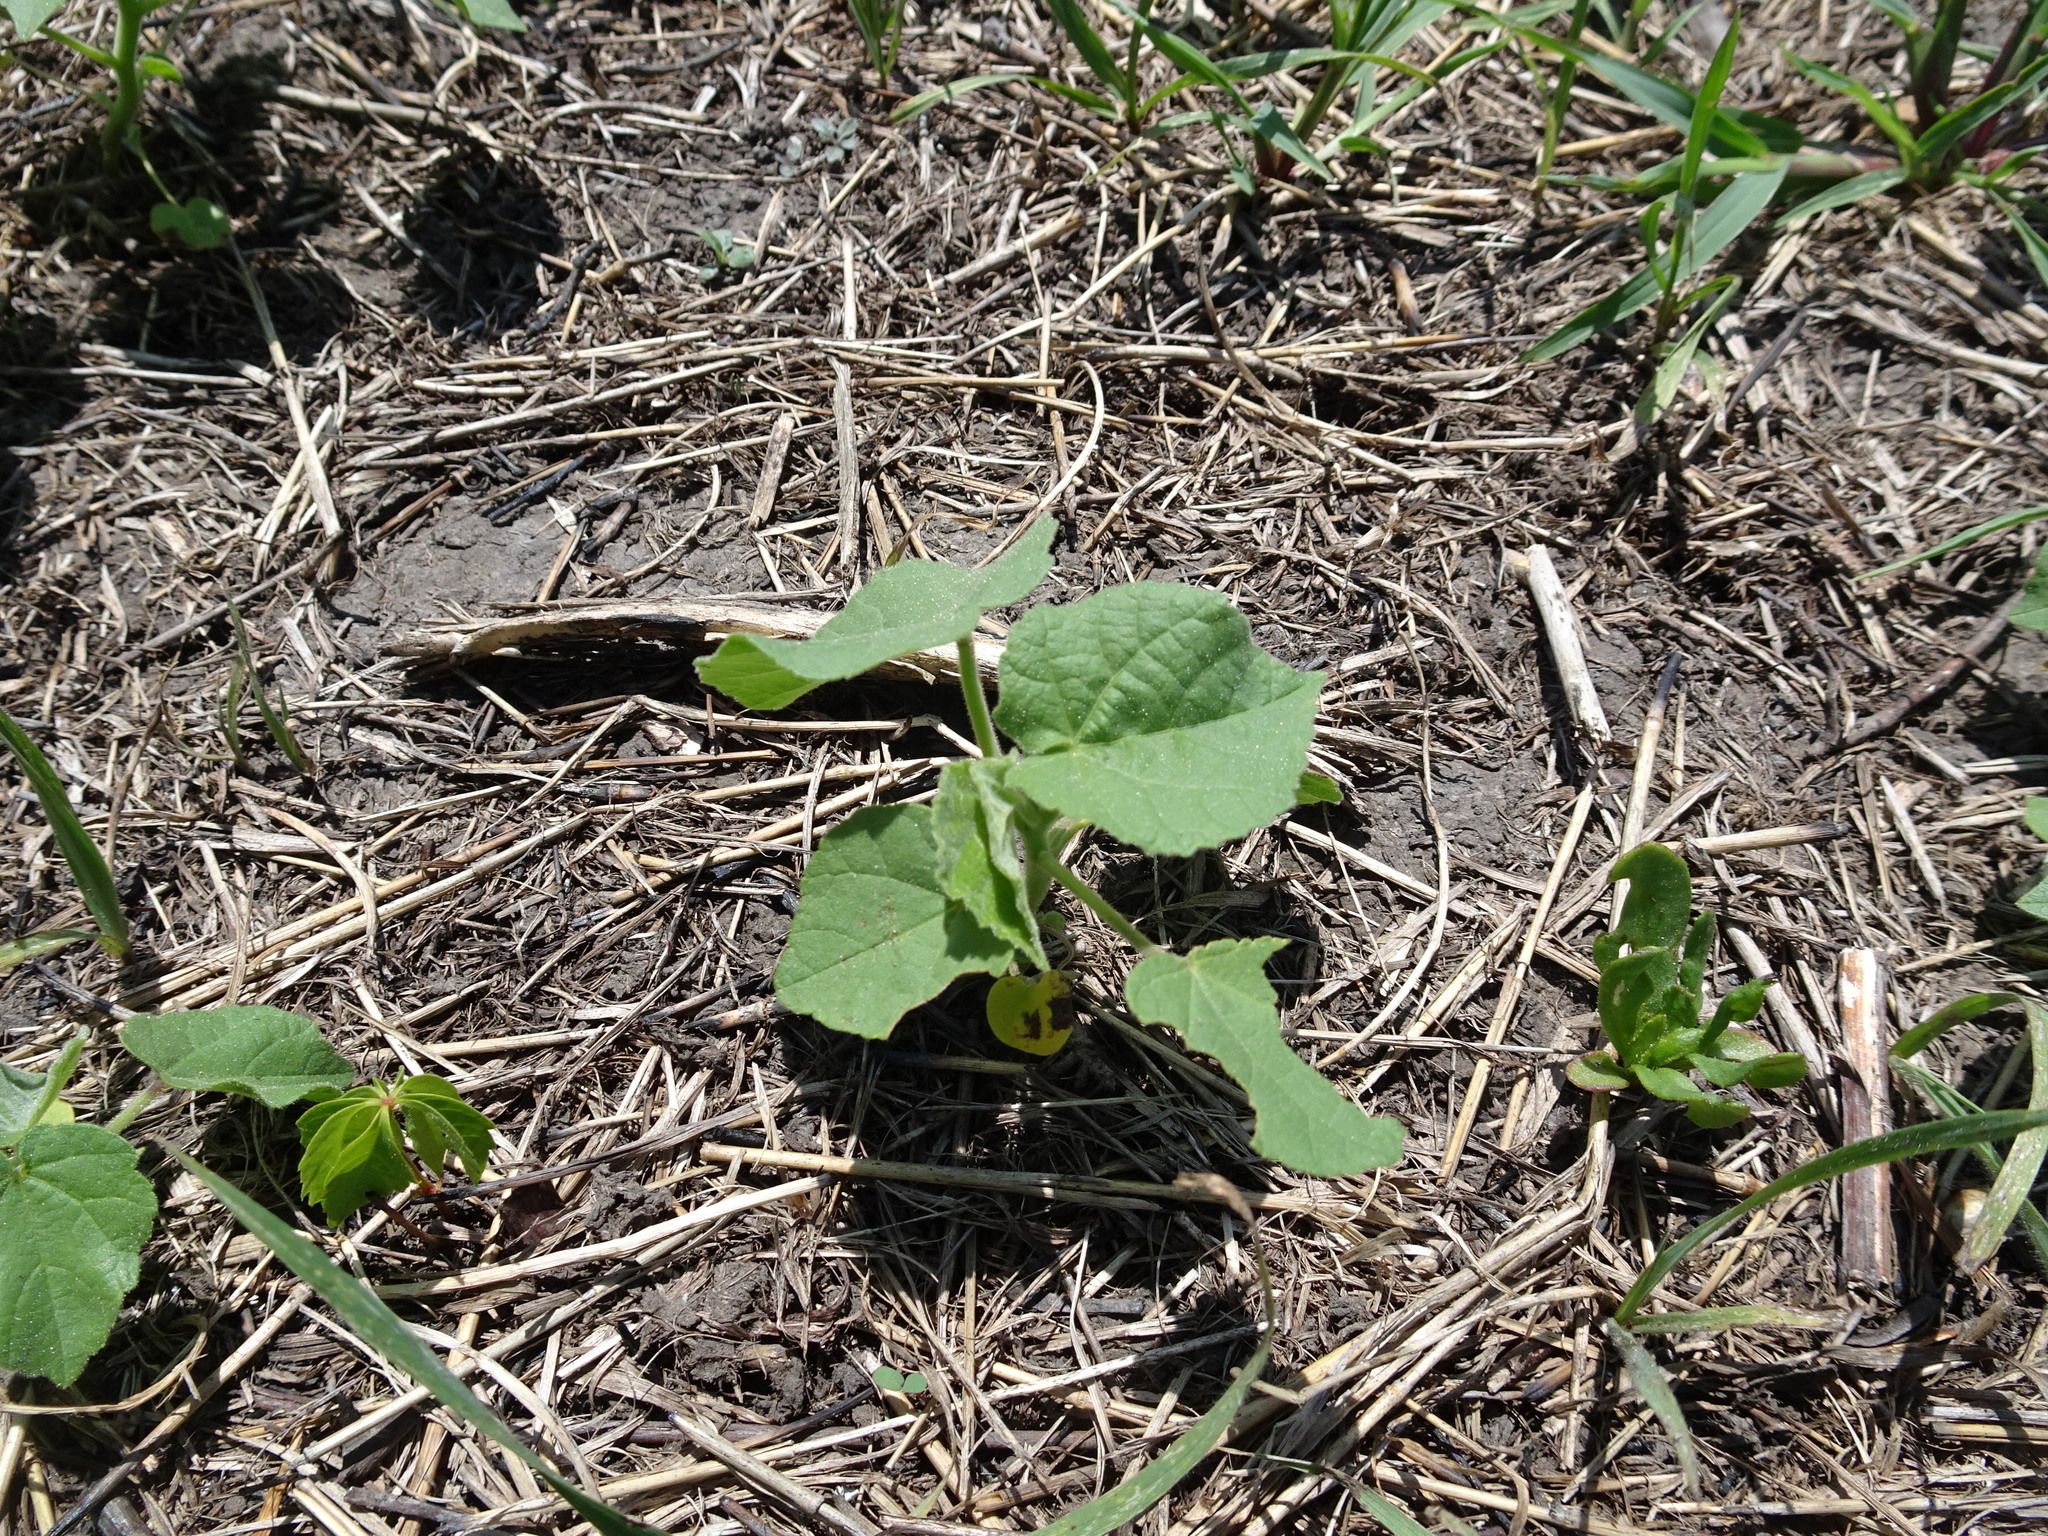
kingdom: Plantae
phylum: Tracheophyta
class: Magnoliopsida
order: Malvales
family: Malvaceae
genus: Abutilon
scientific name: Abutilon theophrasti
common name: Velvetleaf
